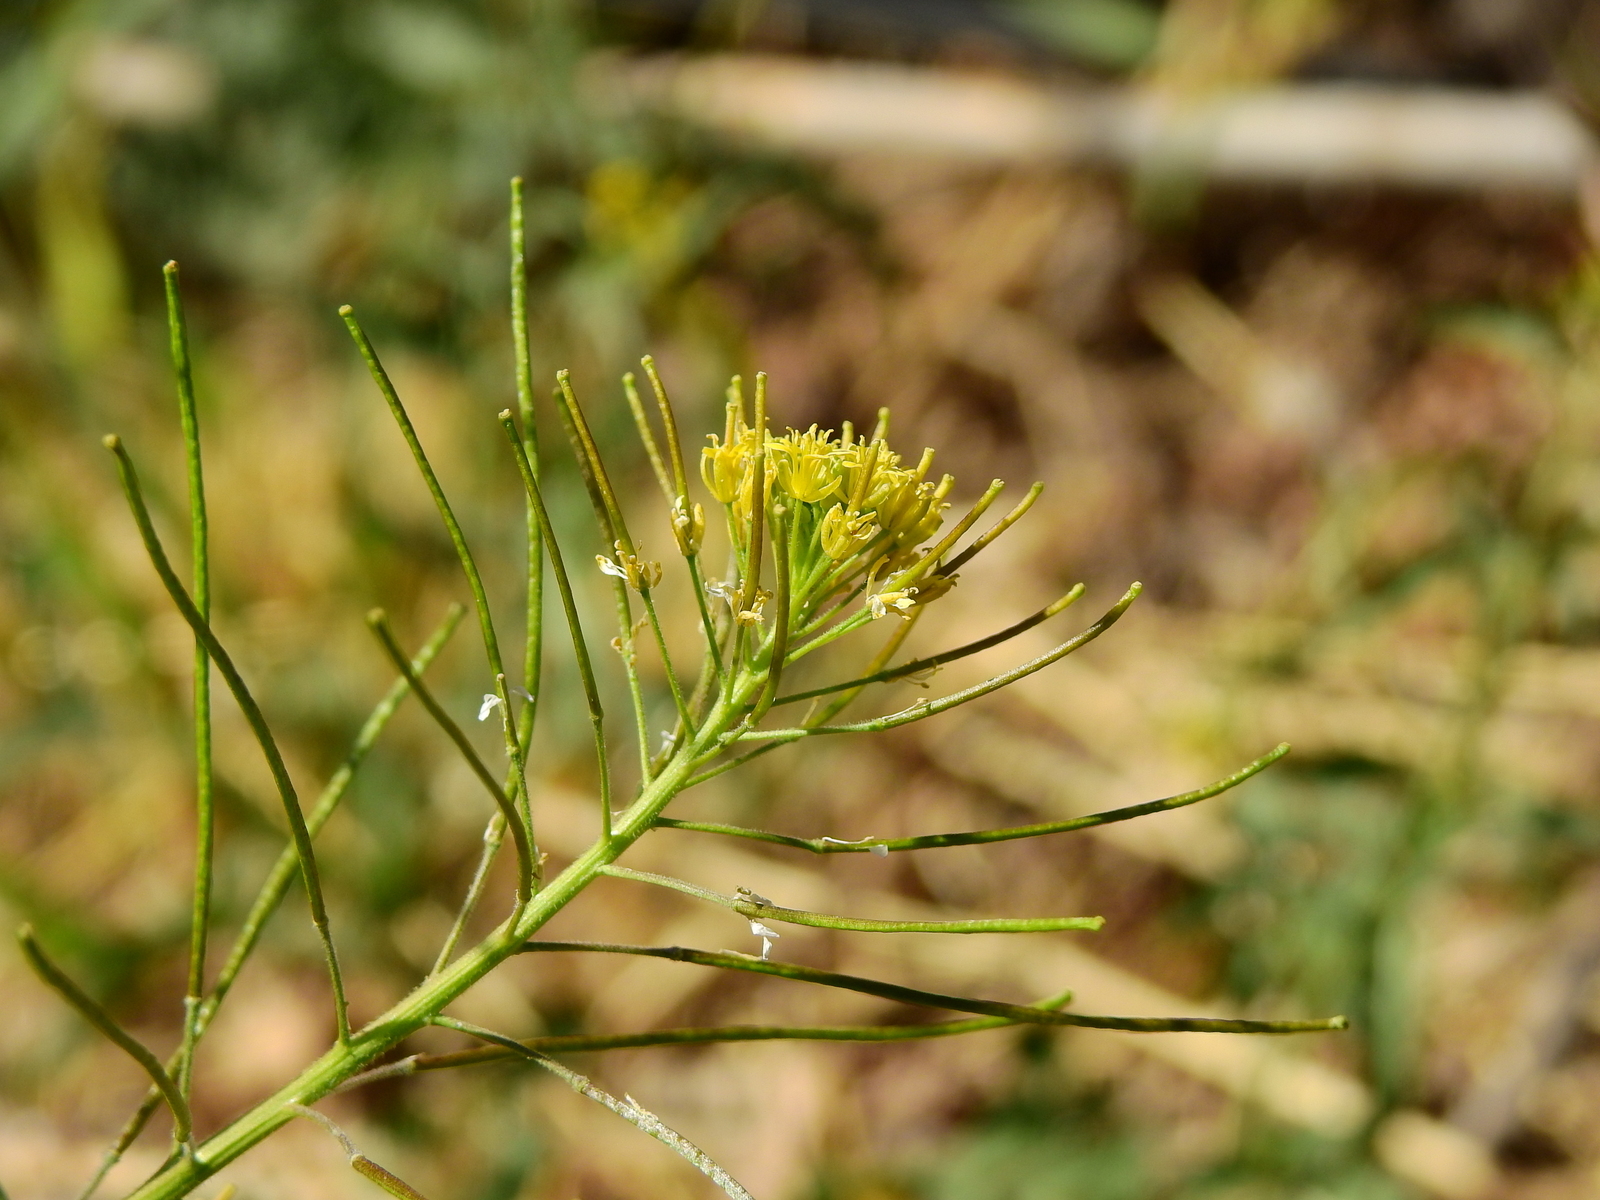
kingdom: Plantae
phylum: Tracheophyta
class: Magnoliopsida
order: Brassicales
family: Brassicaceae
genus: Sisymbrium
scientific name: Sisymbrium irio
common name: London rocket
